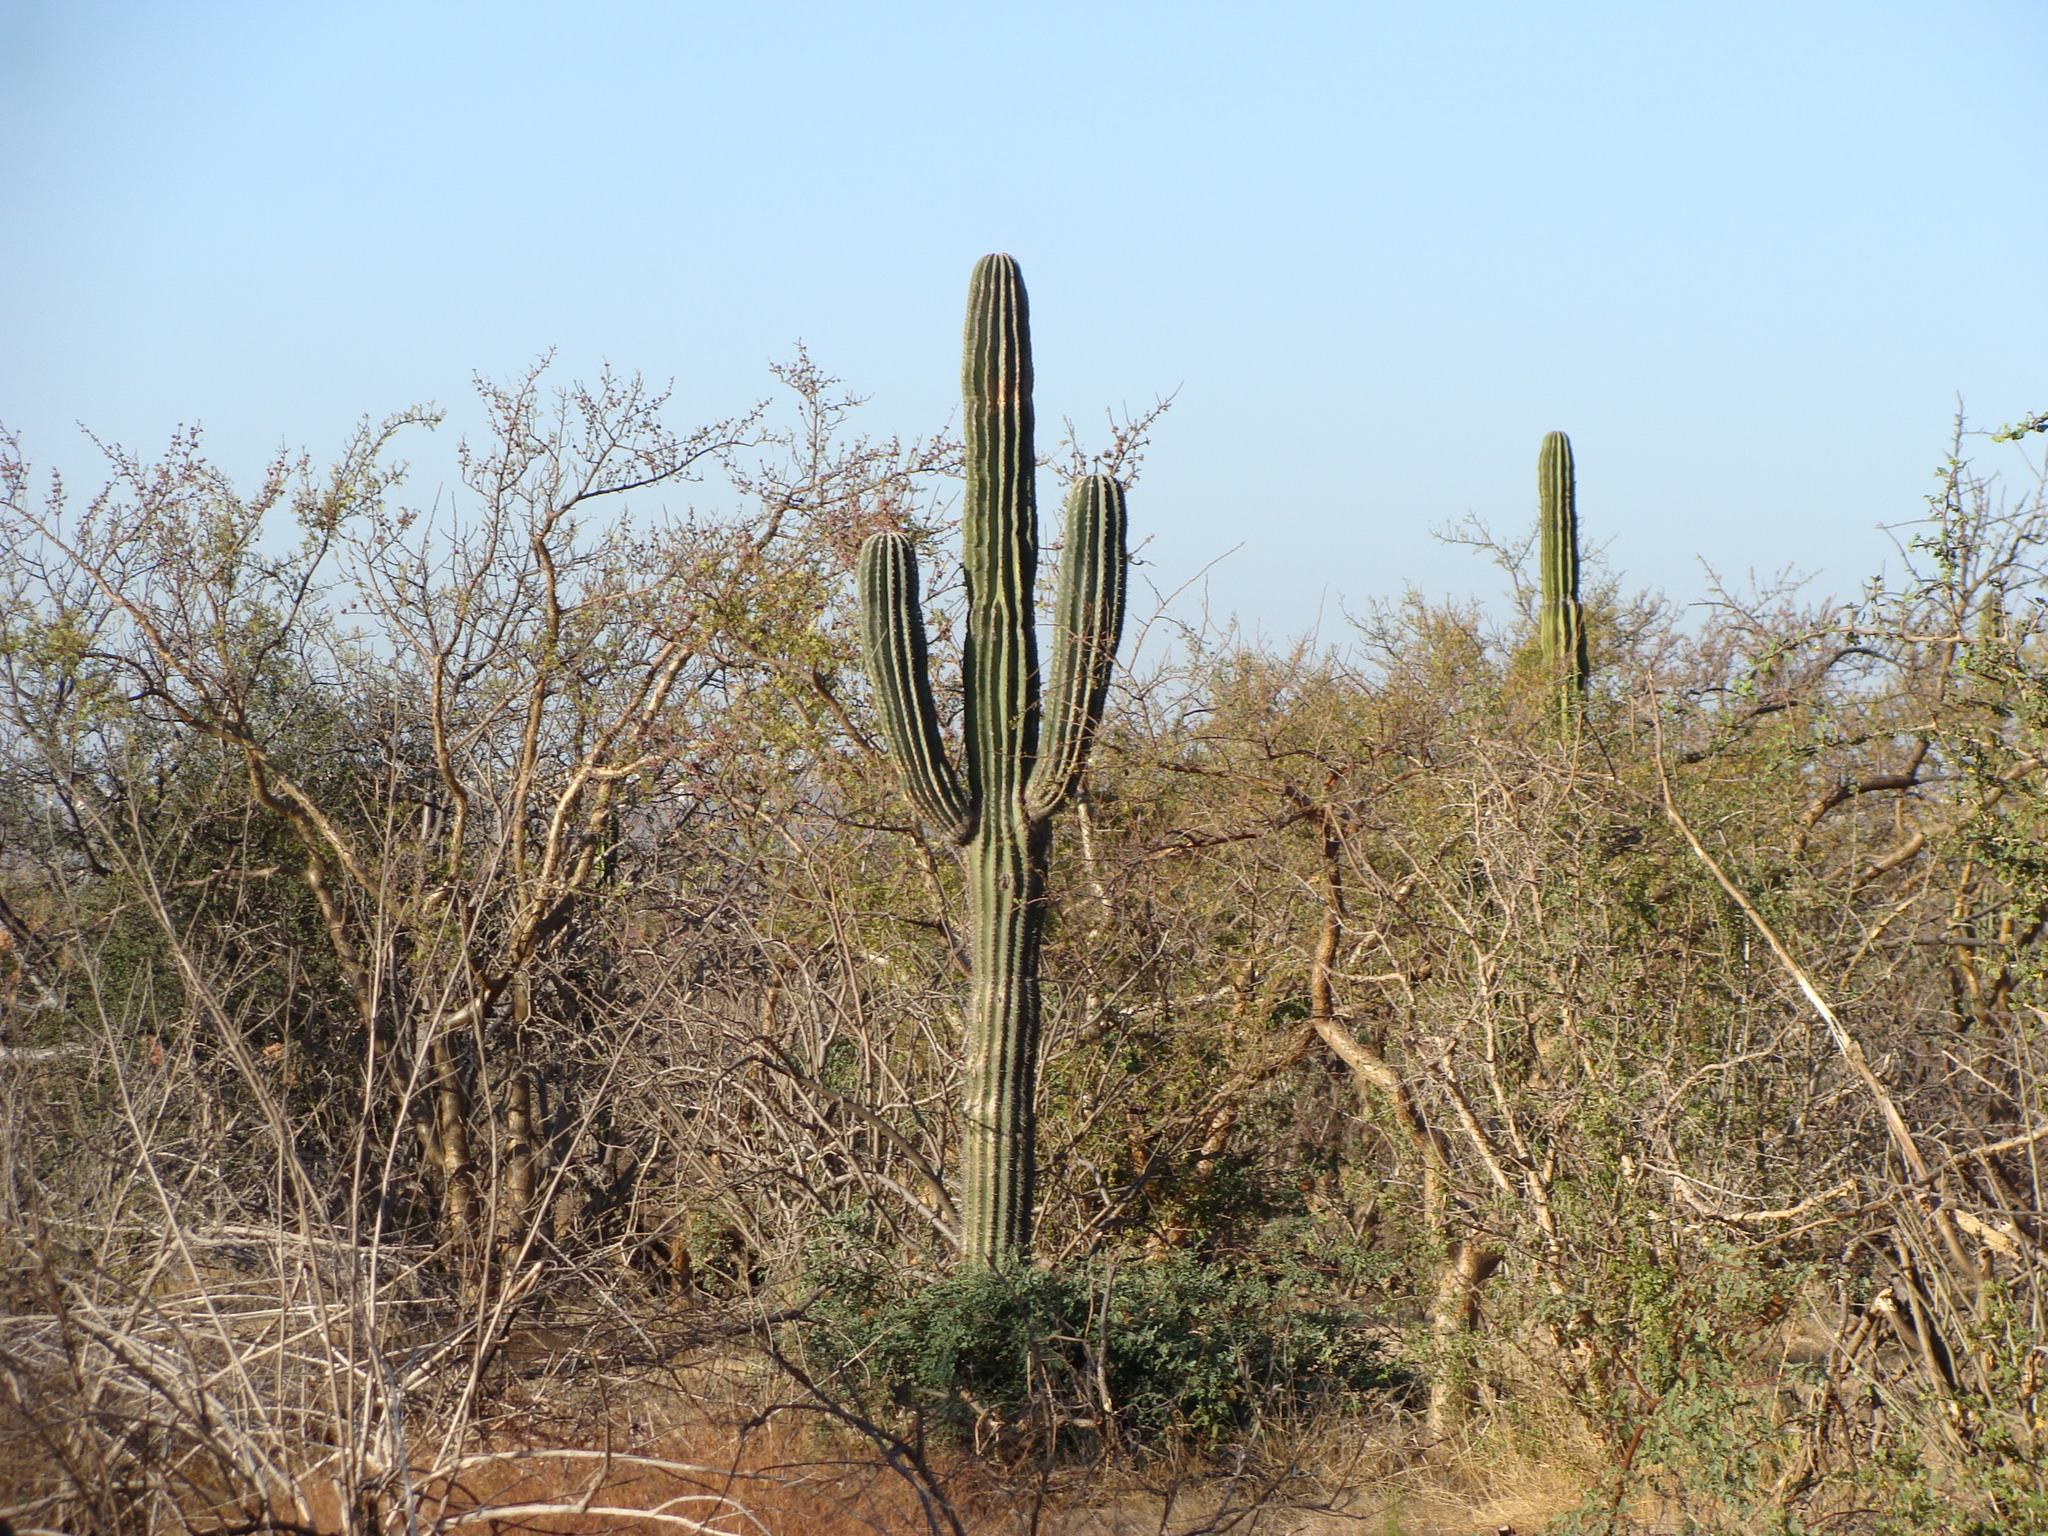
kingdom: Plantae
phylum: Tracheophyta
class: Magnoliopsida
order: Caryophyllales
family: Cactaceae
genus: Pachycereus
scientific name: Pachycereus pringlei
